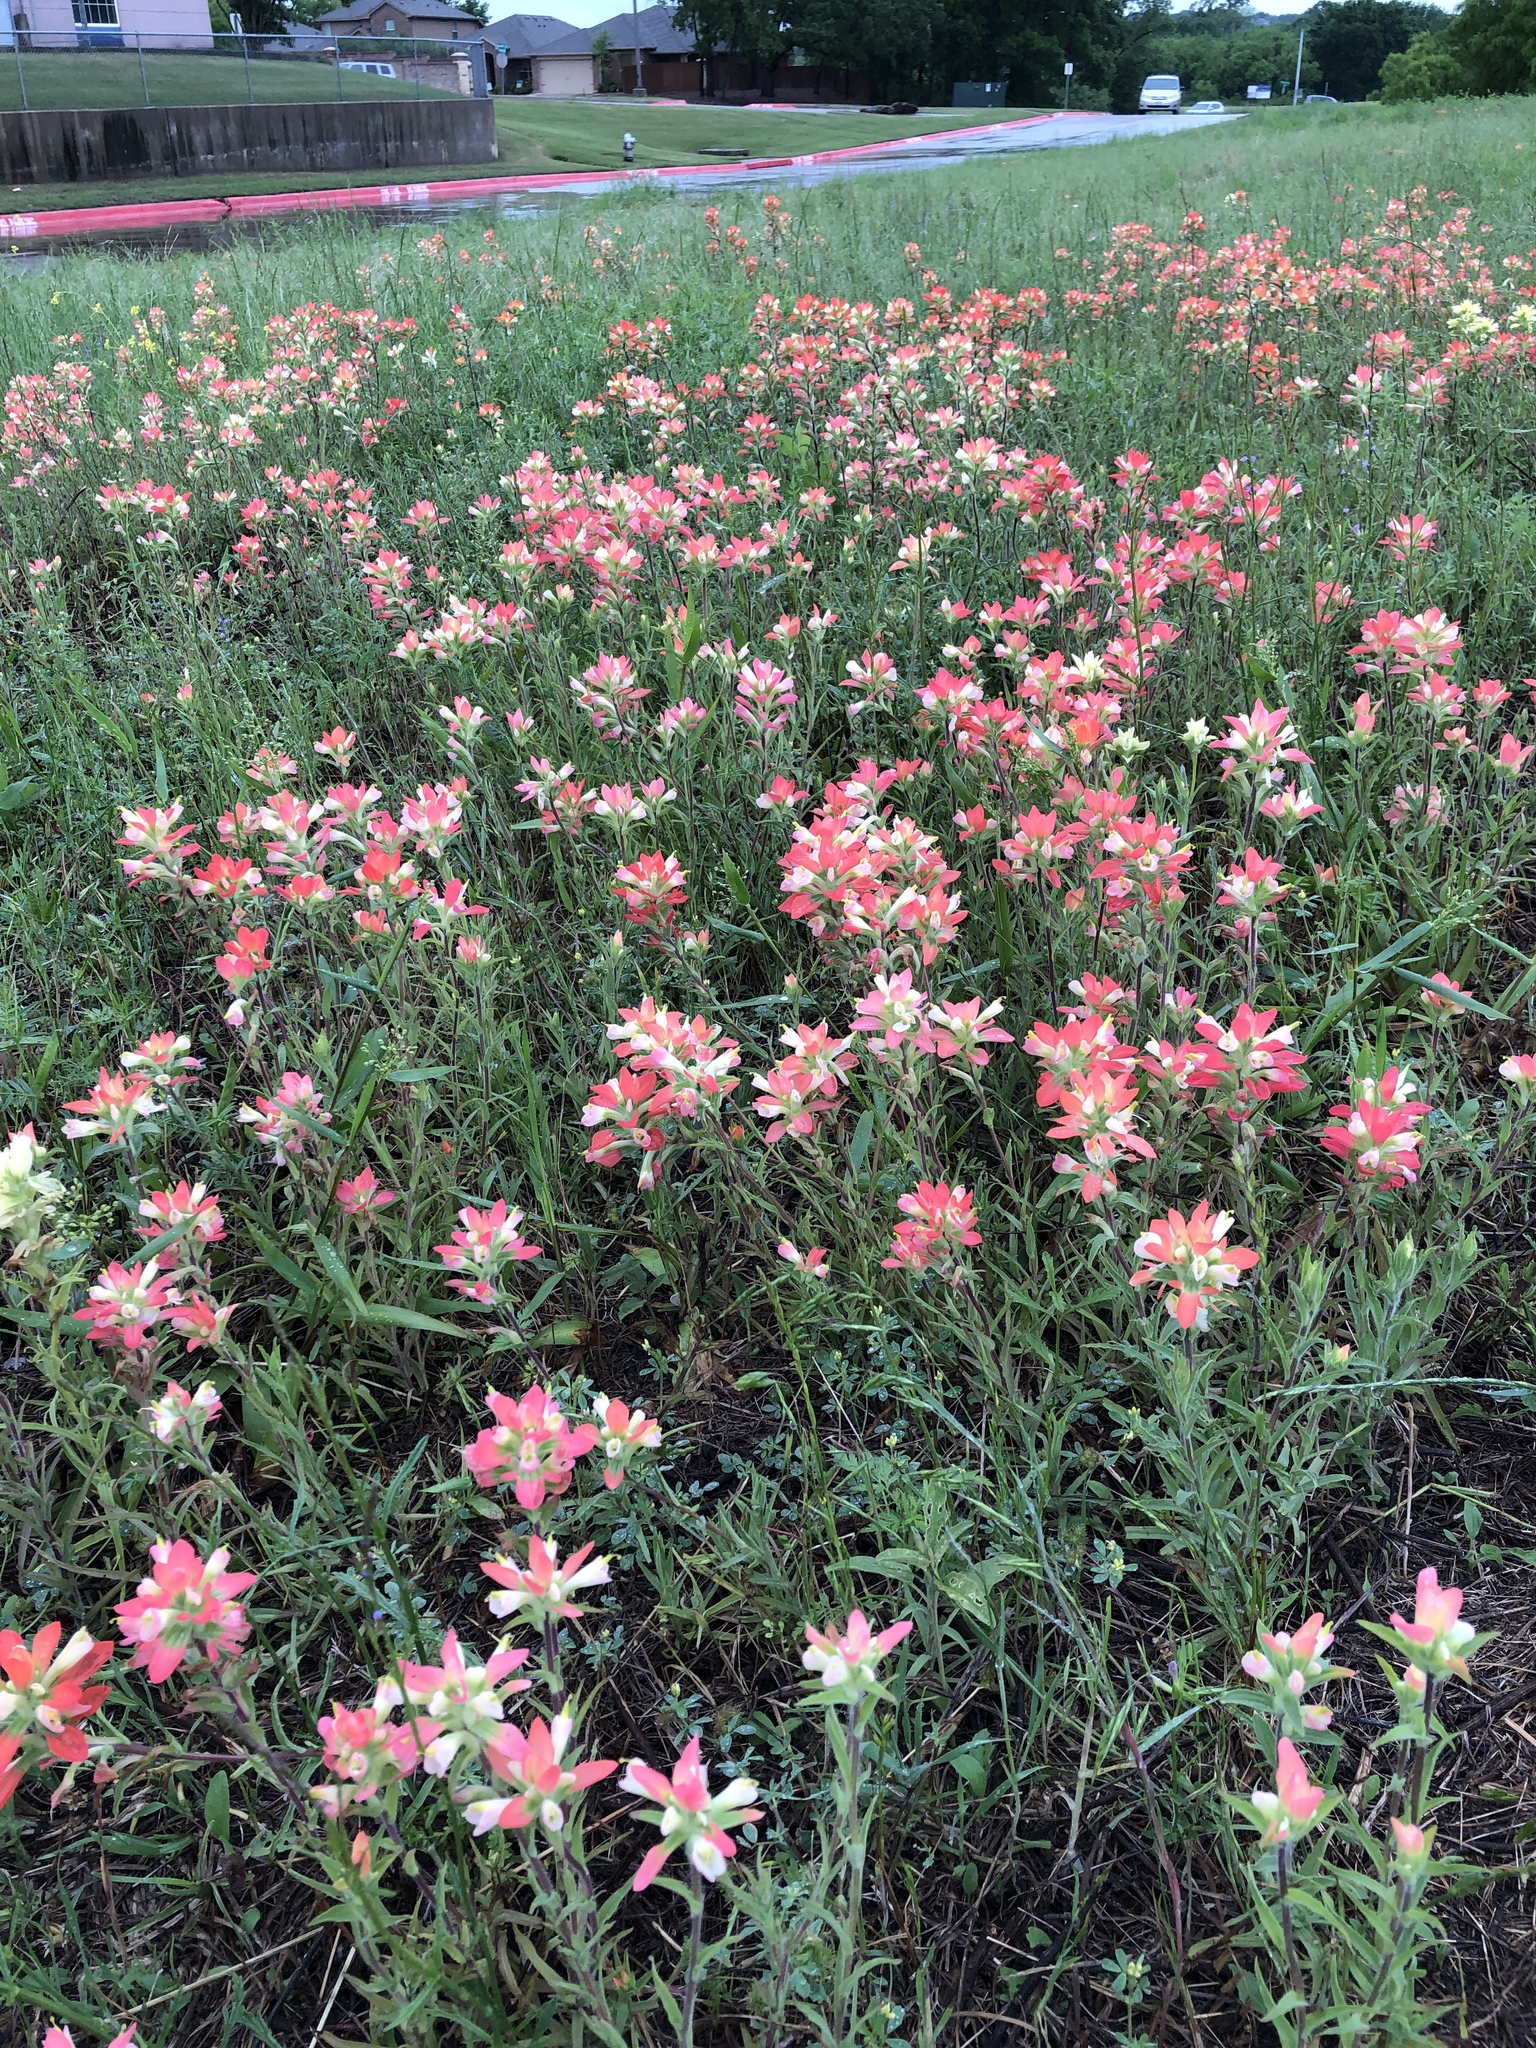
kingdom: Plantae
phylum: Tracheophyta
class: Magnoliopsida
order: Lamiales
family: Orobanchaceae
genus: Castilleja
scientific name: Castilleja indivisa
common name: Texas paintbrush
